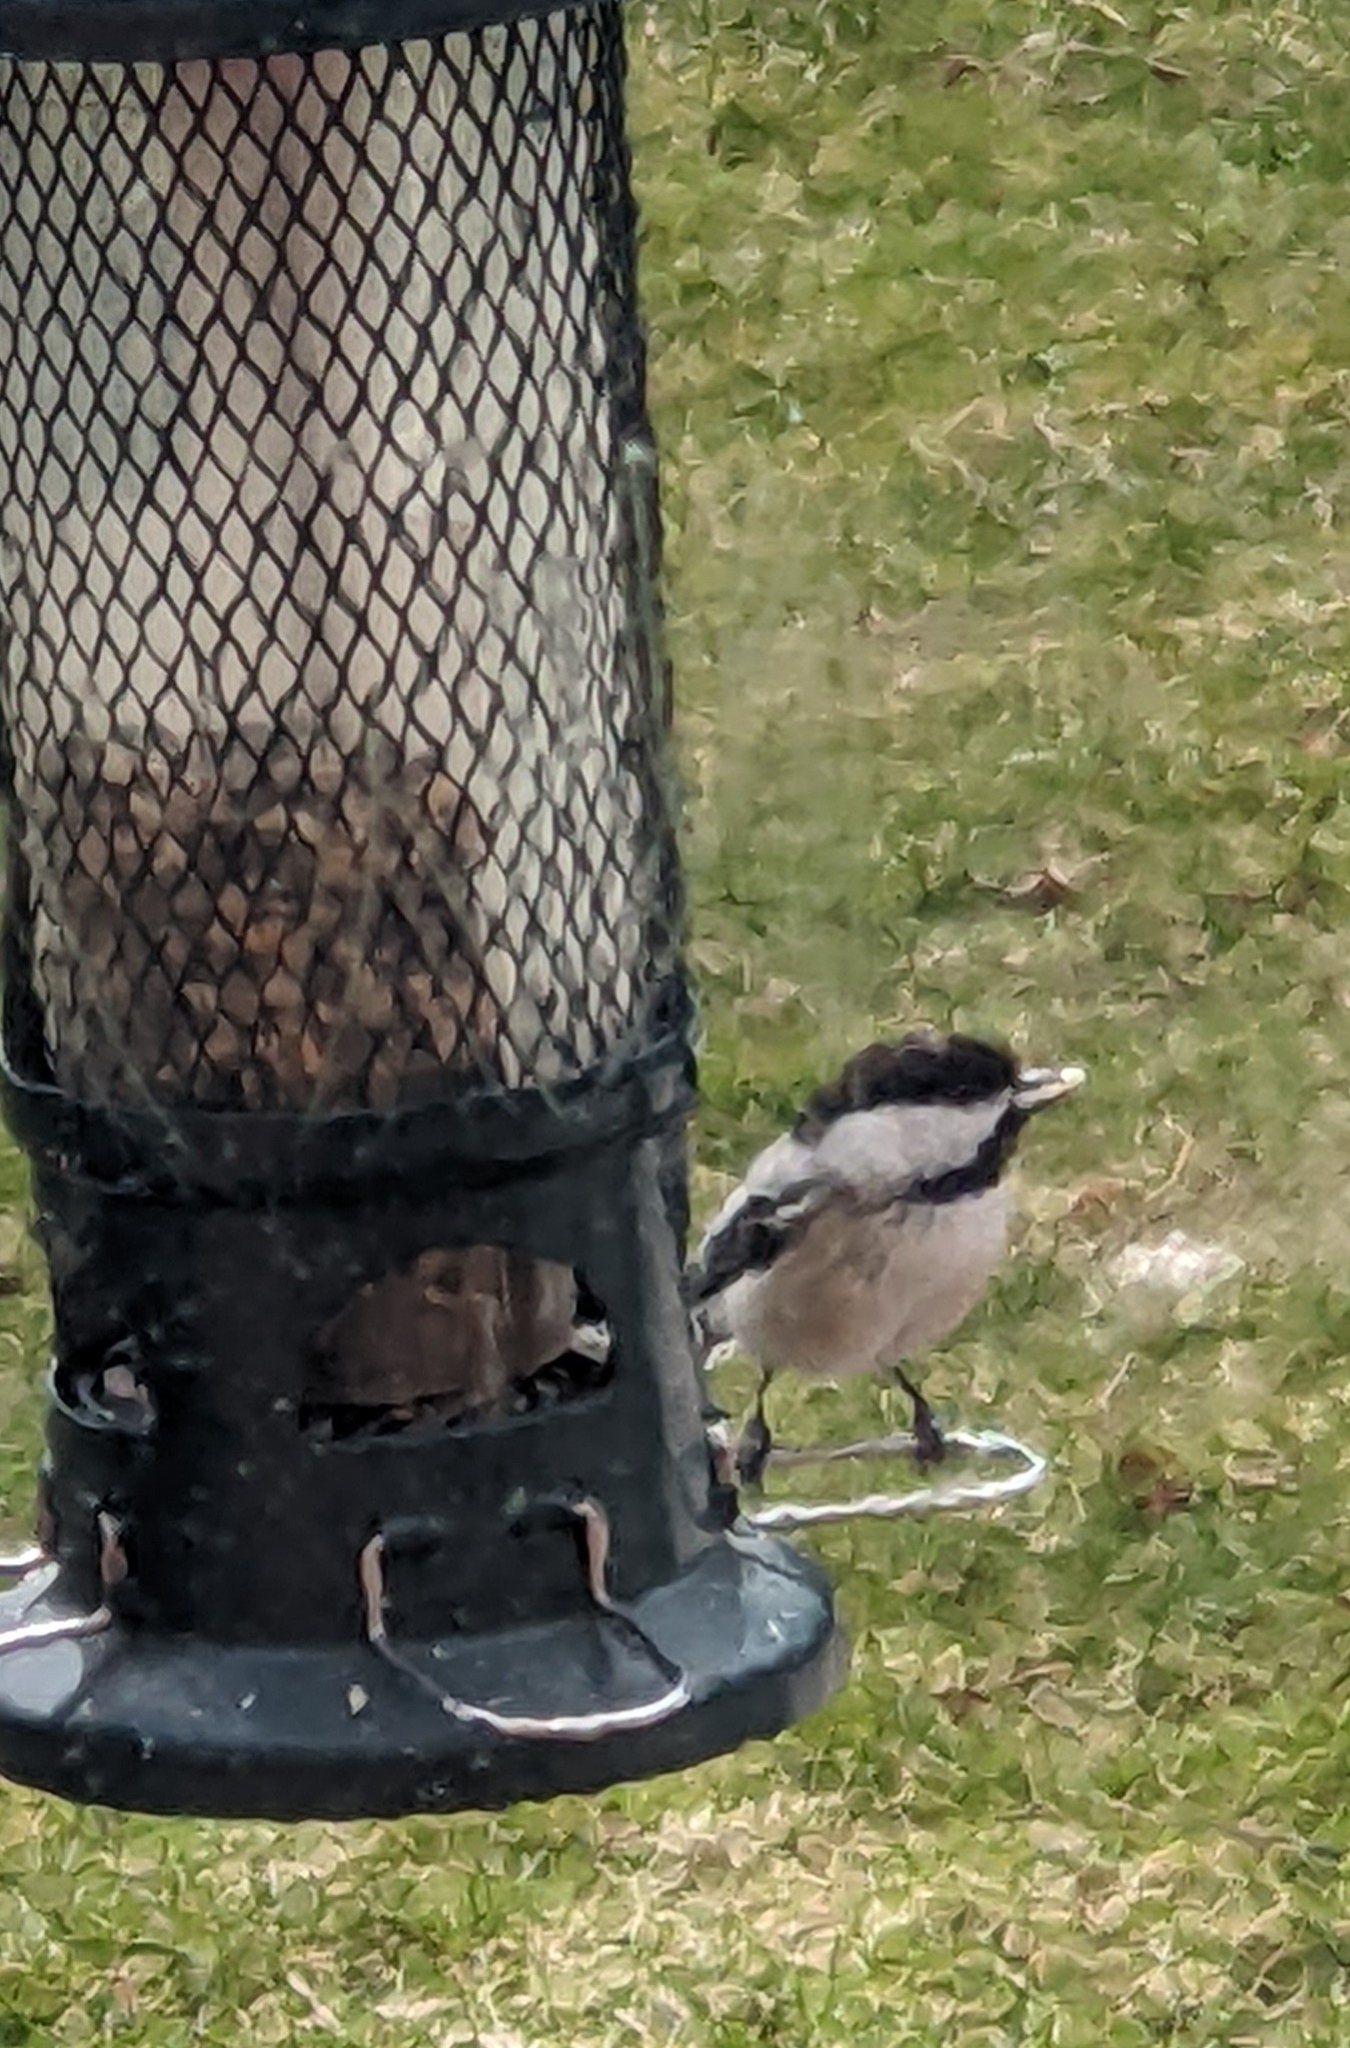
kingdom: Animalia
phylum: Chordata
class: Aves
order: Passeriformes
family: Paridae
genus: Poecile
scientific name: Poecile atricapillus
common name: Black-capped chickadee
